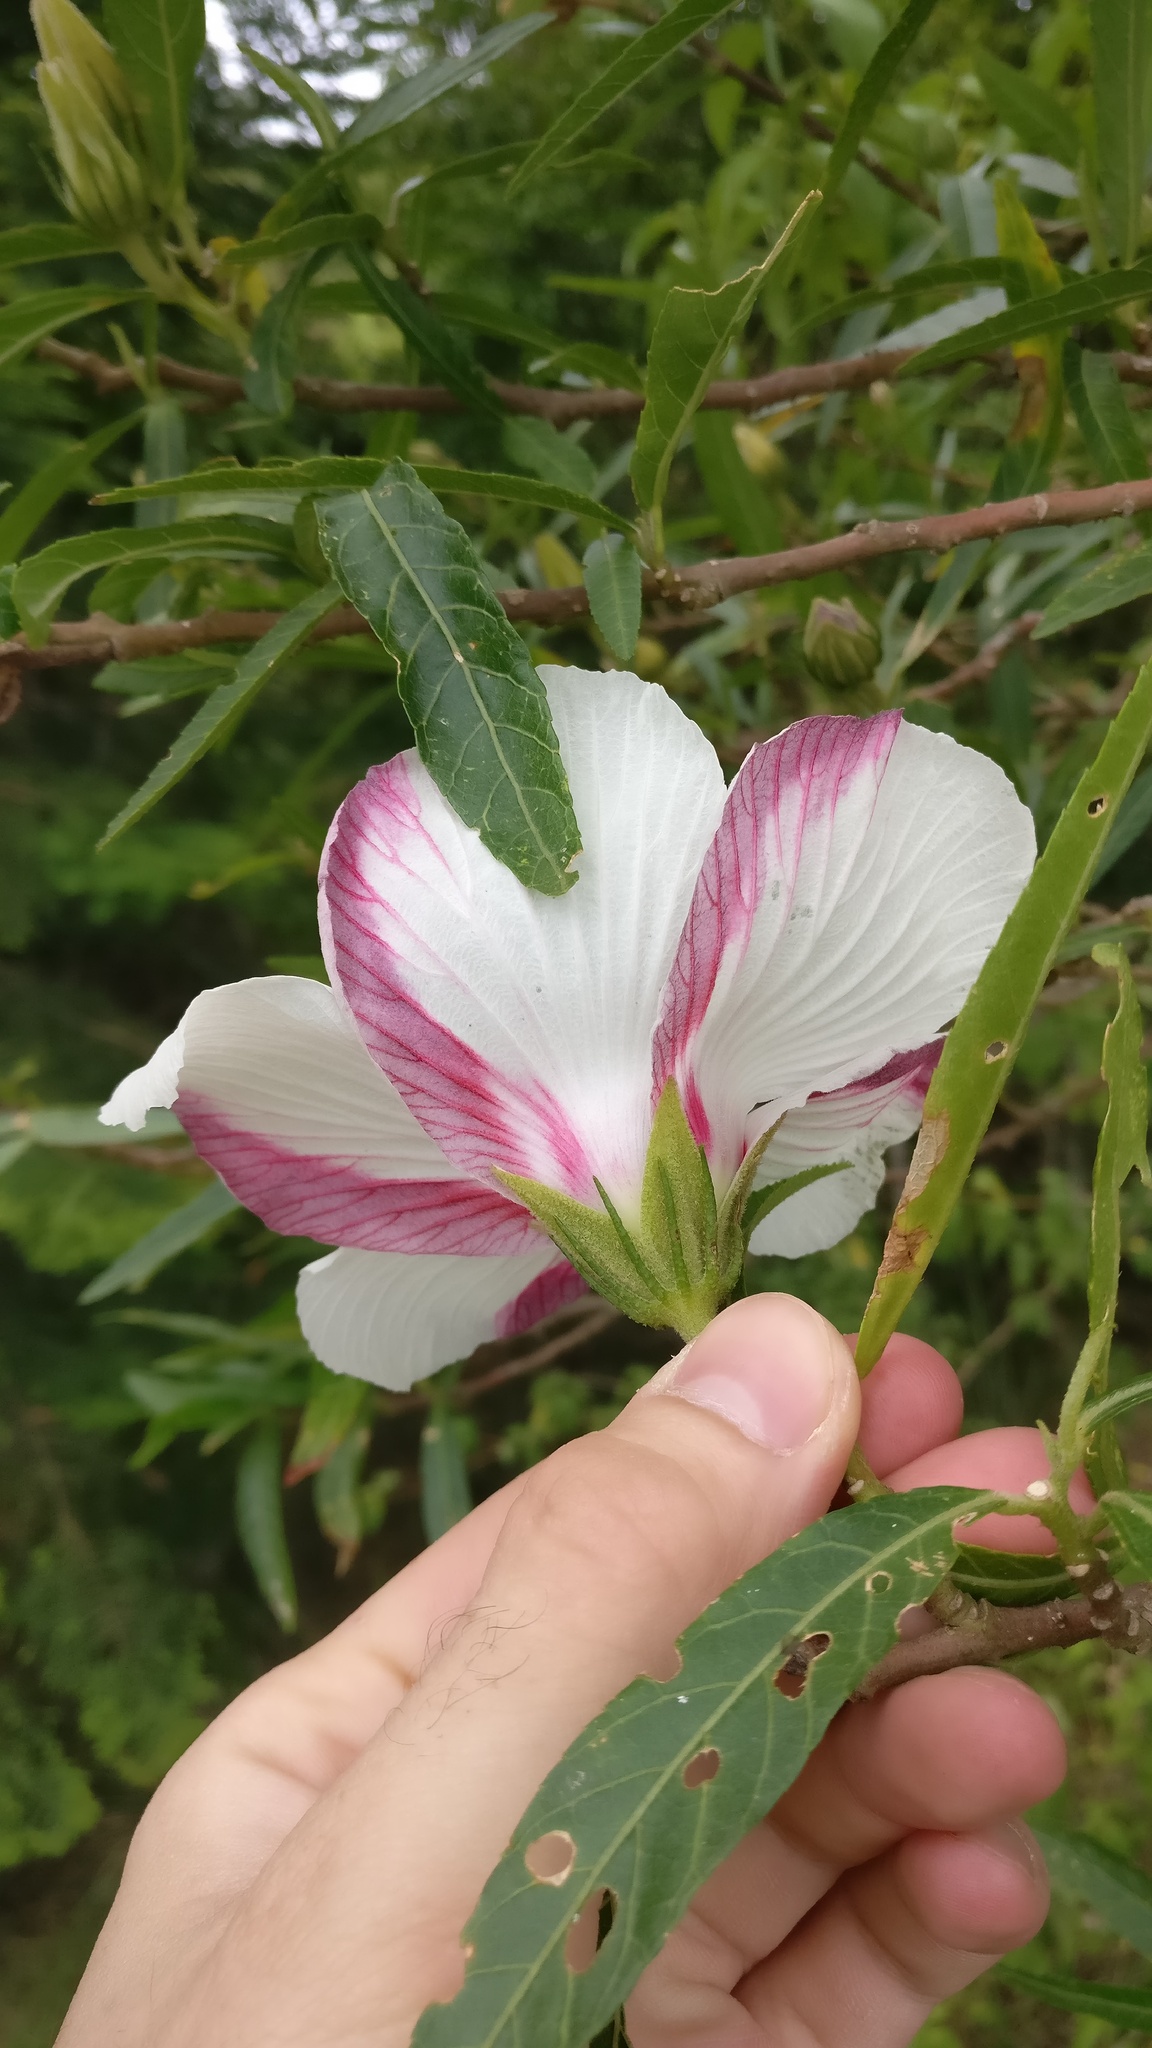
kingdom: Plantae
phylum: Tracheophyta
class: Magnoliopsida
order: Malvales
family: Malvaceae
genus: Hibiscus
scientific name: Hibiscus heterophyllus
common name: Queensland-sorrel
